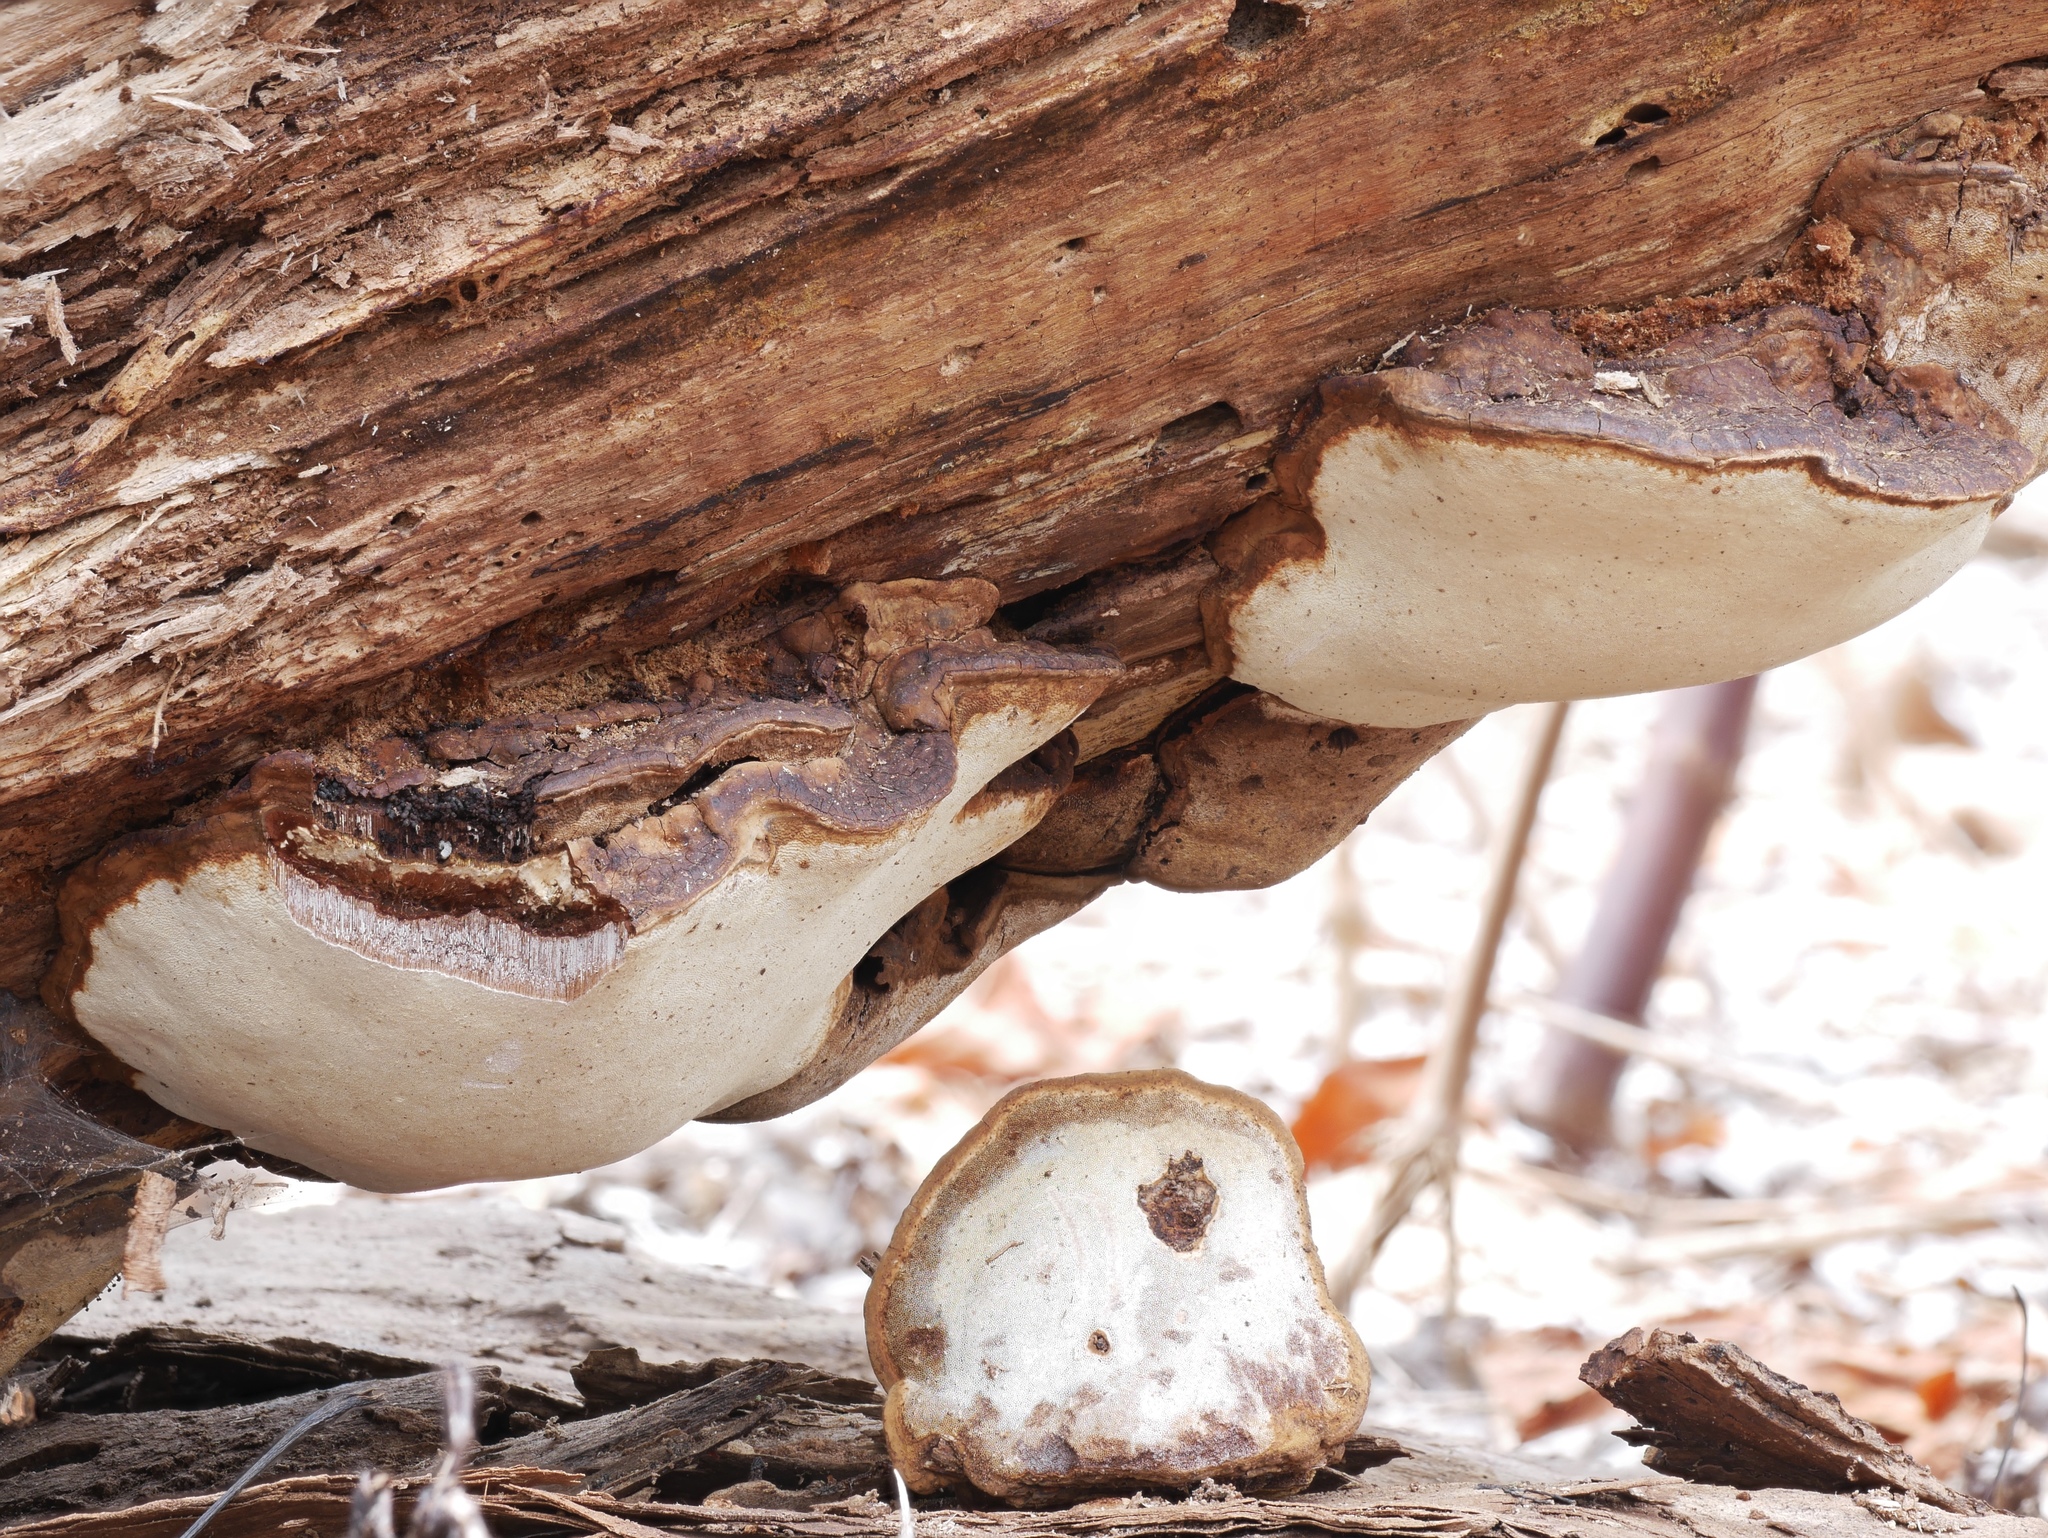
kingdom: Fungi
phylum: Basidiomycota
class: Agaricomycetes
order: Polyporales
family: Polyporaceae
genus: Ganoderma
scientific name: Ganoderma lobatum
